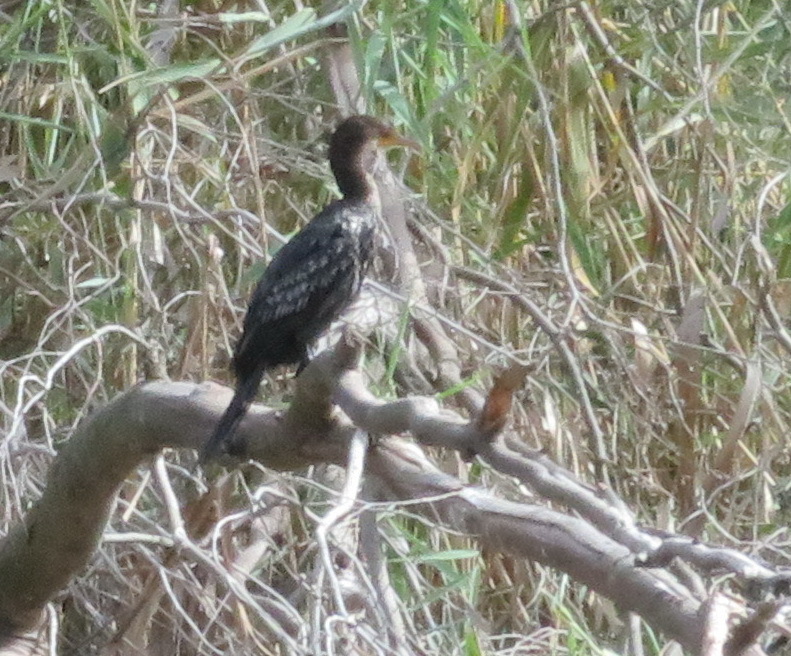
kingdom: Animalia
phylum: Chordata
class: Aves
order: Suliformes
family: Phalacrocoracidae
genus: Microcarbo
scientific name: Microcarbo africanus
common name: Long-tailed cormorant
